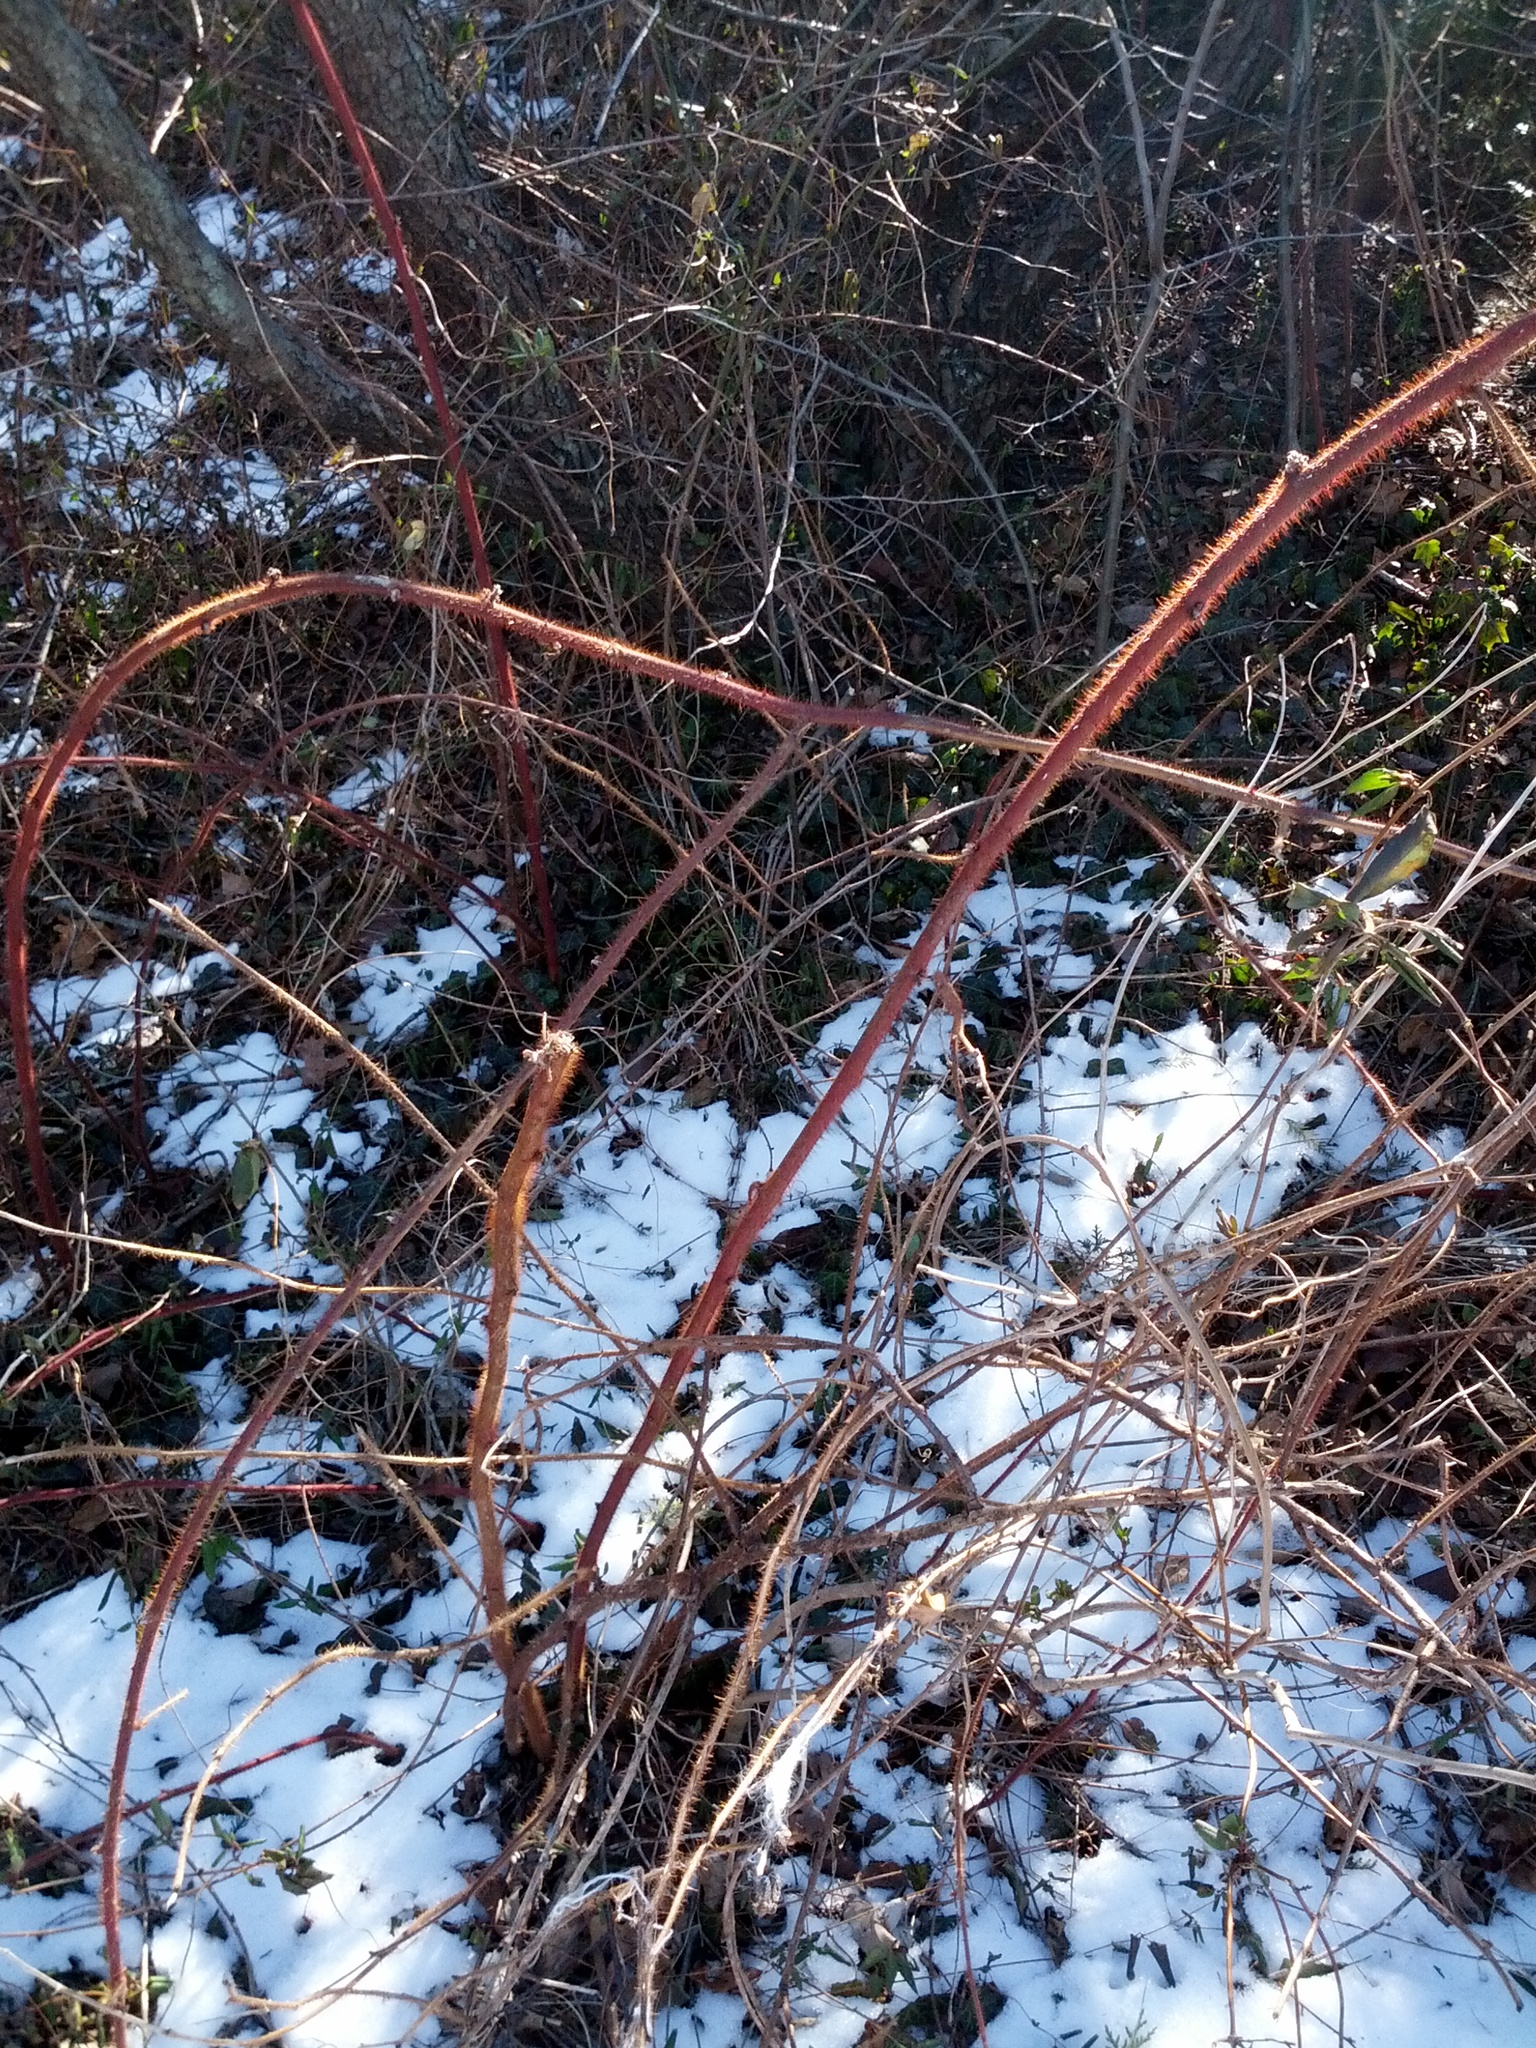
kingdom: Plantae
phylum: Tracheophyta
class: Magnoliopsida
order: Rosales
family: Rosaceae
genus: Rubus
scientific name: Rubus phoenicolasius
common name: Japanese wineberry
